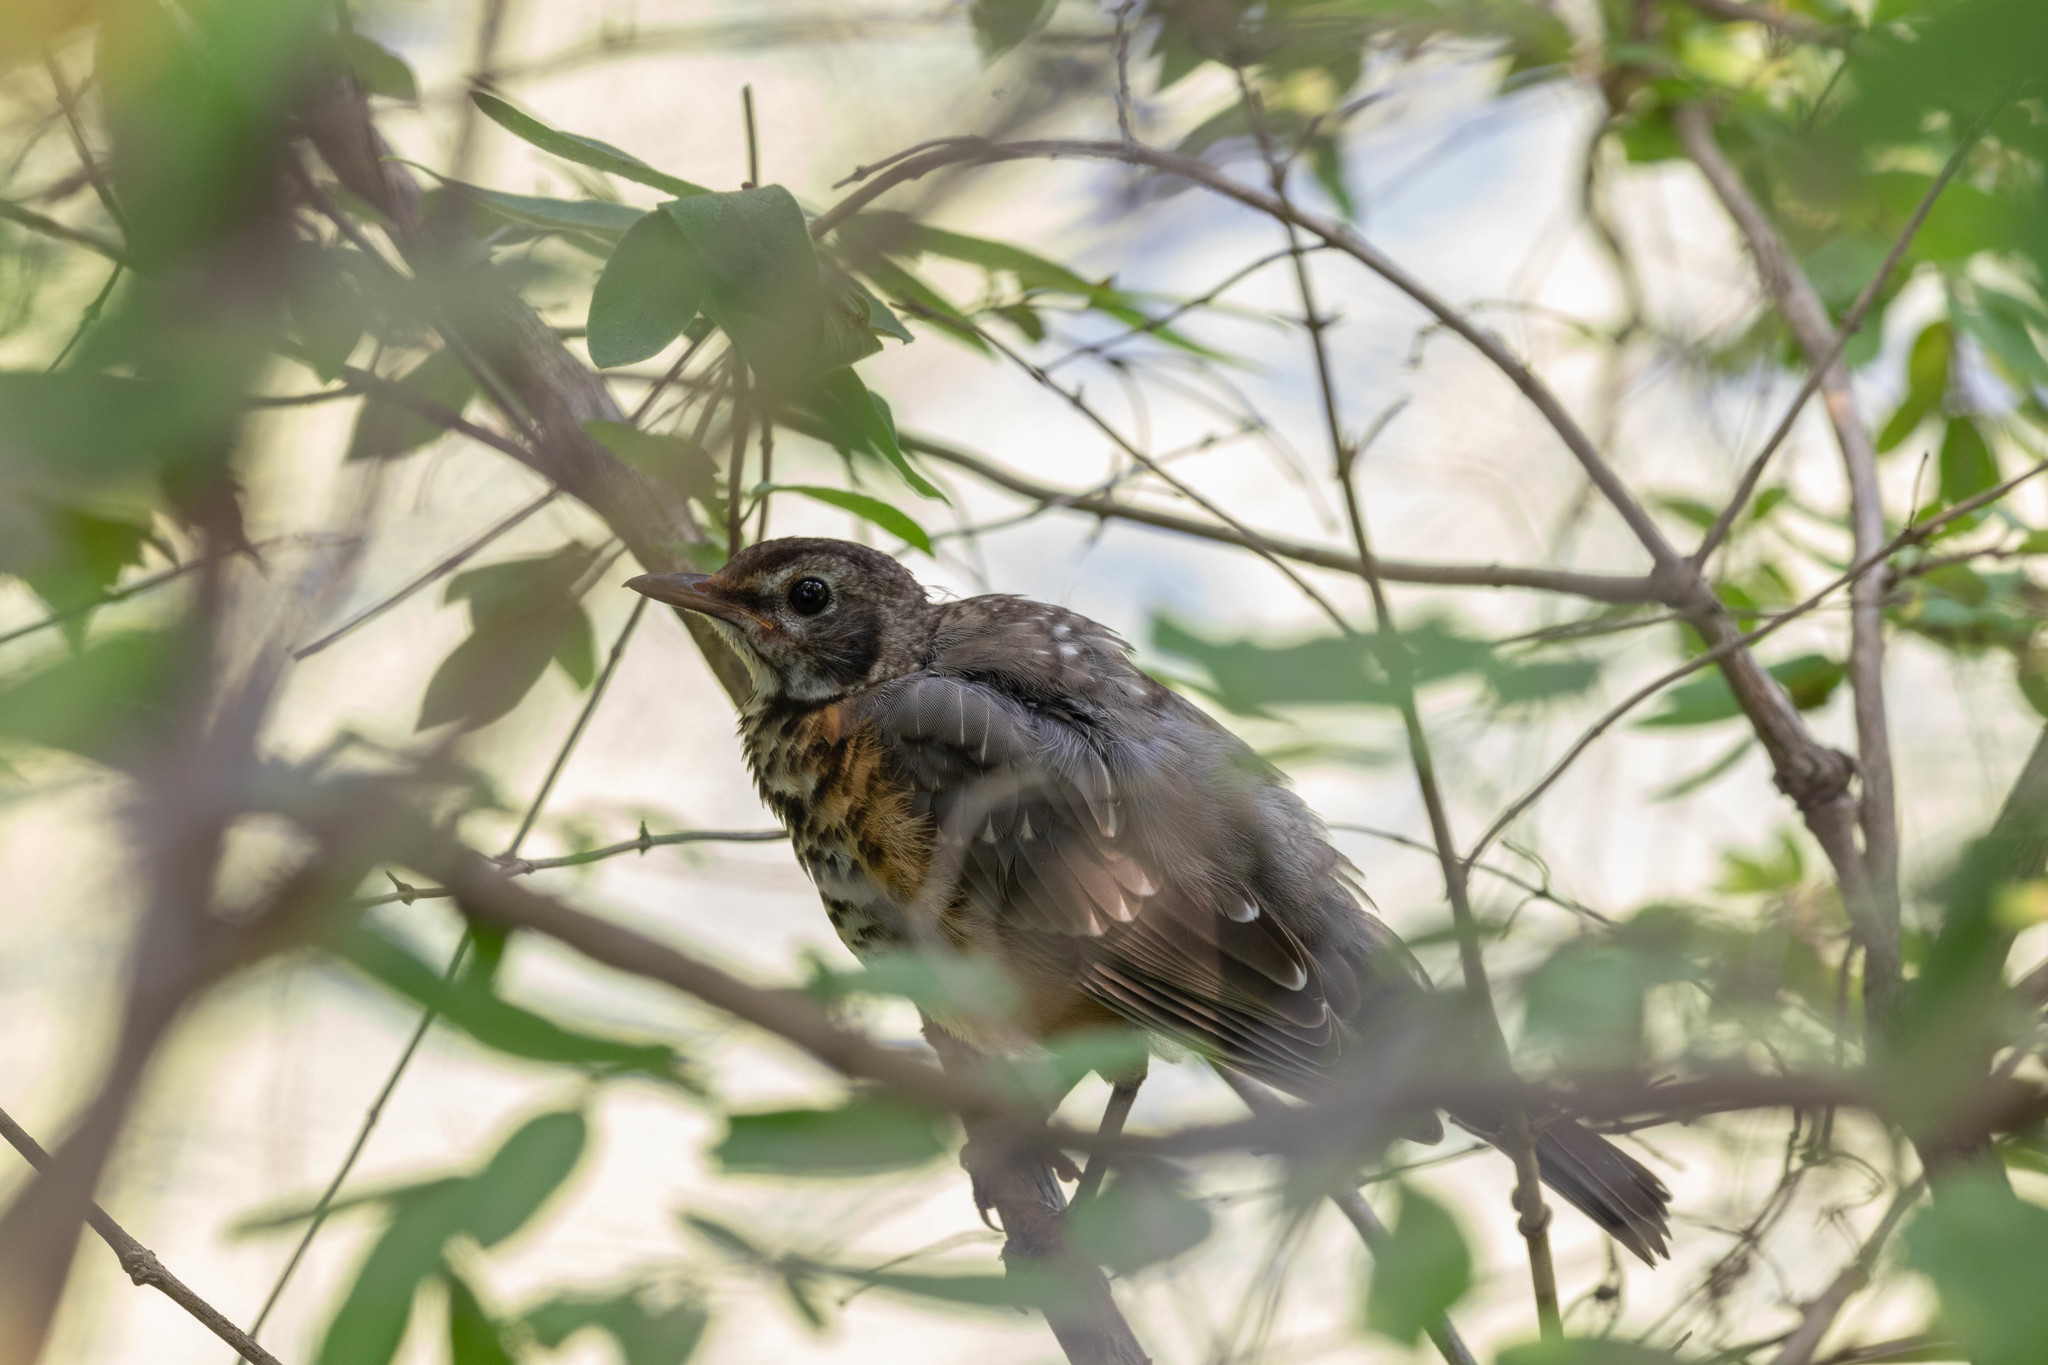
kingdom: Animalia
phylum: Chordata
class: Aves
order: Passeriformes
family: Turdidae
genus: Turdus
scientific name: Turdus migratorius
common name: American robin
